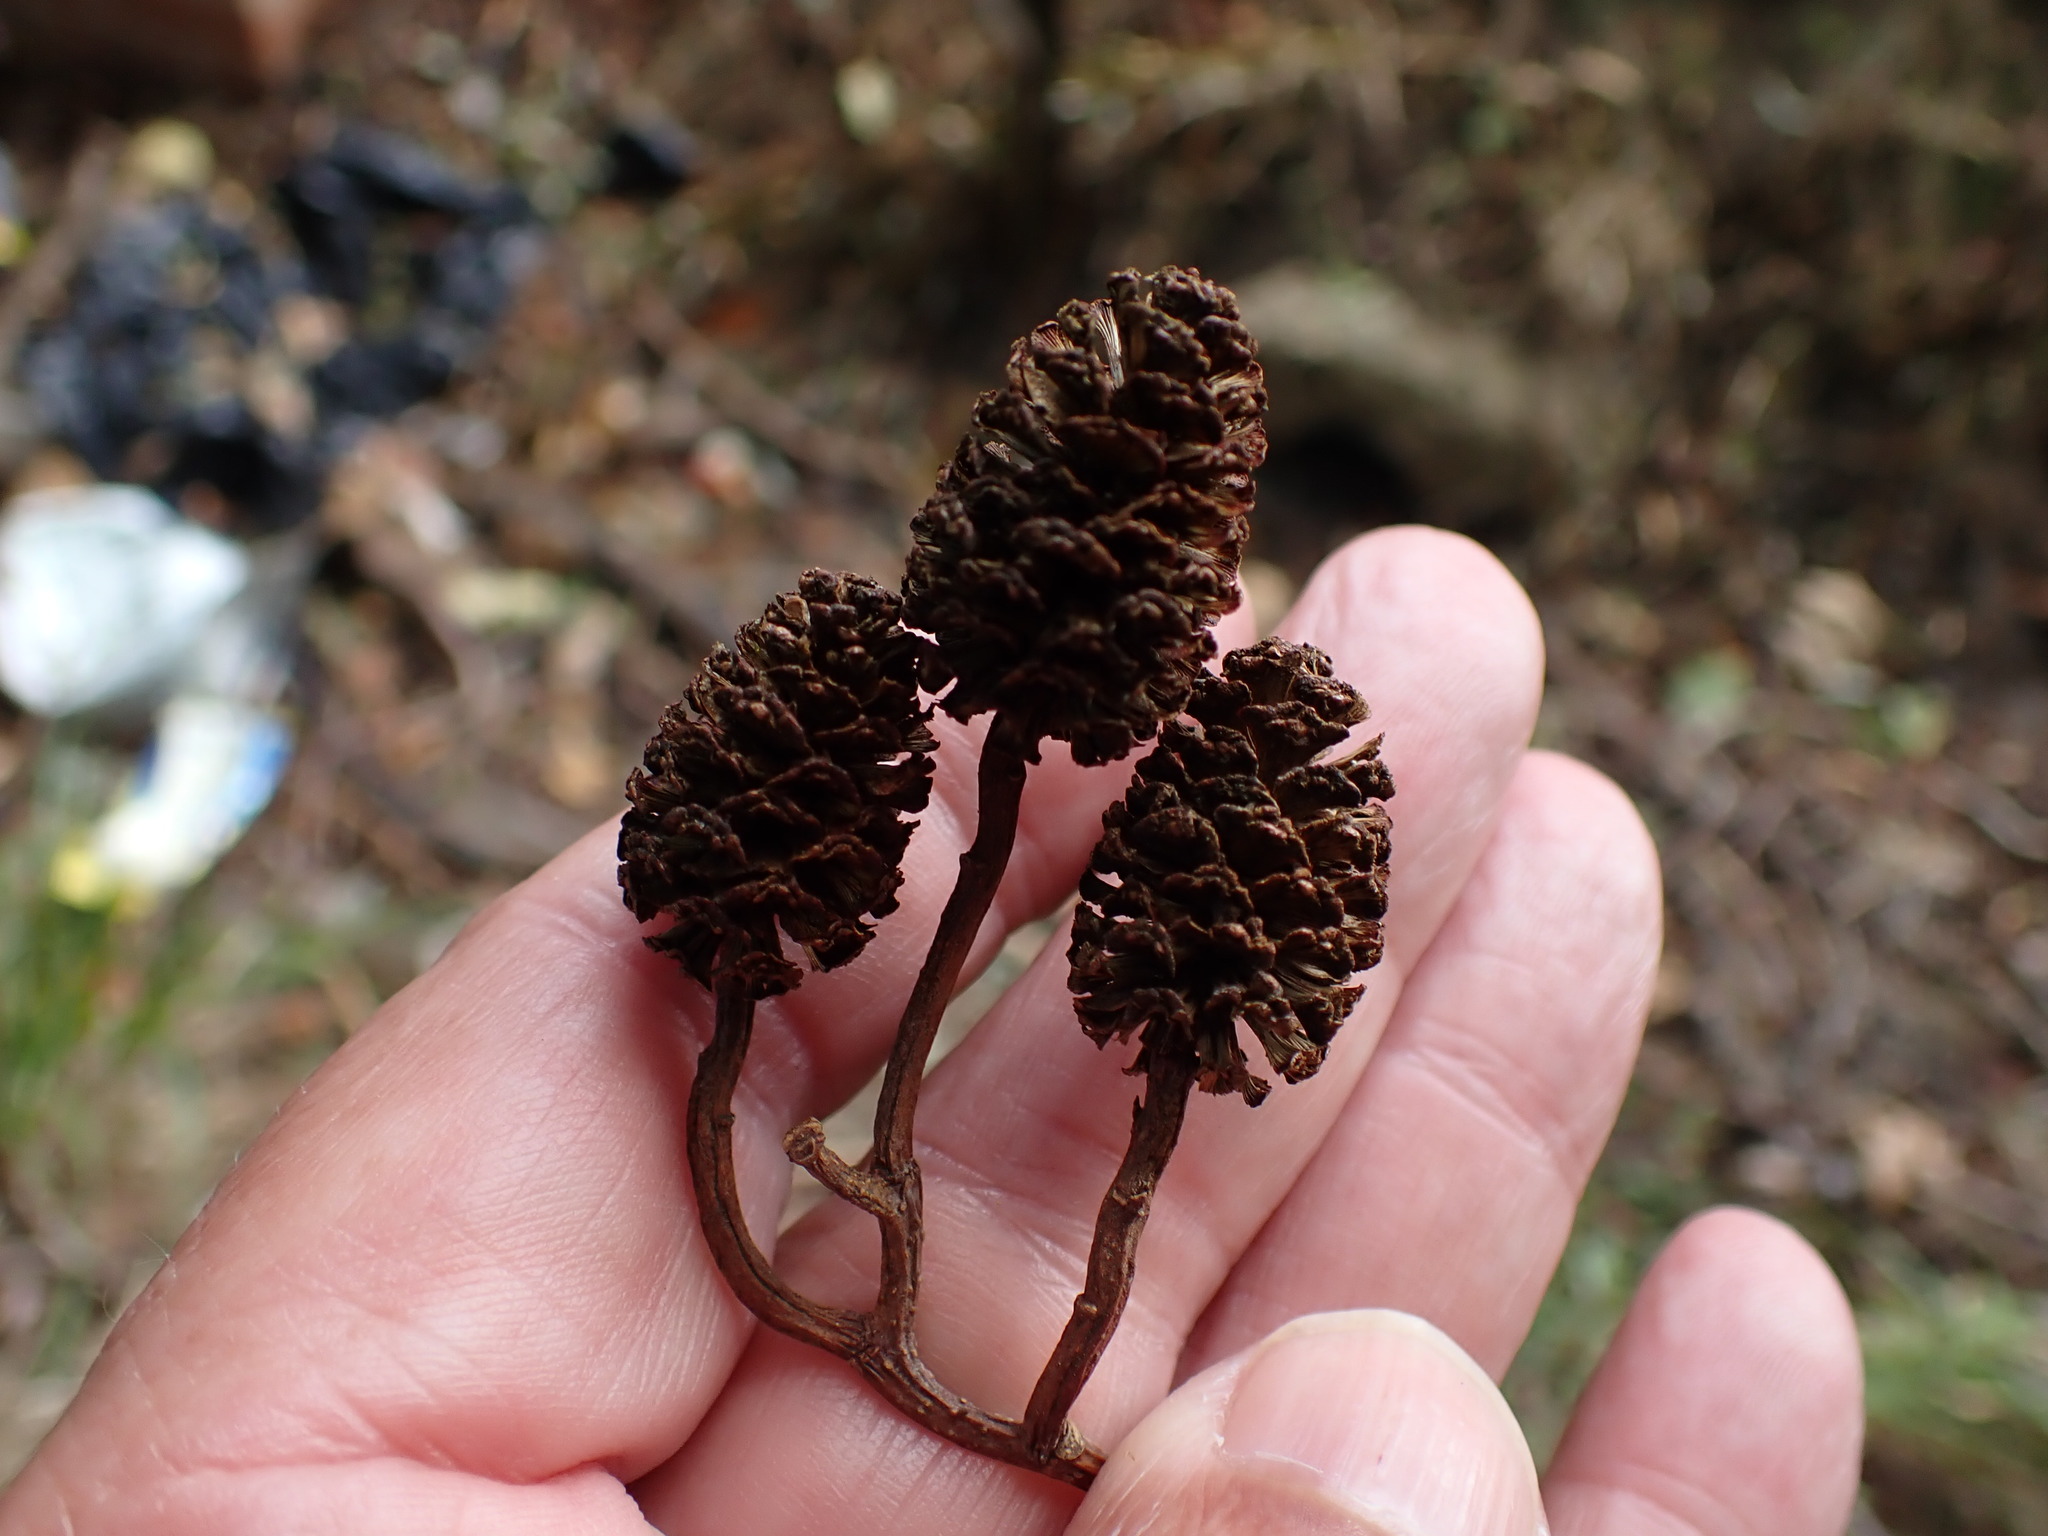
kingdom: Plantae
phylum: Tracheophyta
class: Magnoliopsida
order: Fagales
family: Betulaceae
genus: Alnus
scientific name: Alnus glutinosa
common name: Black alder
